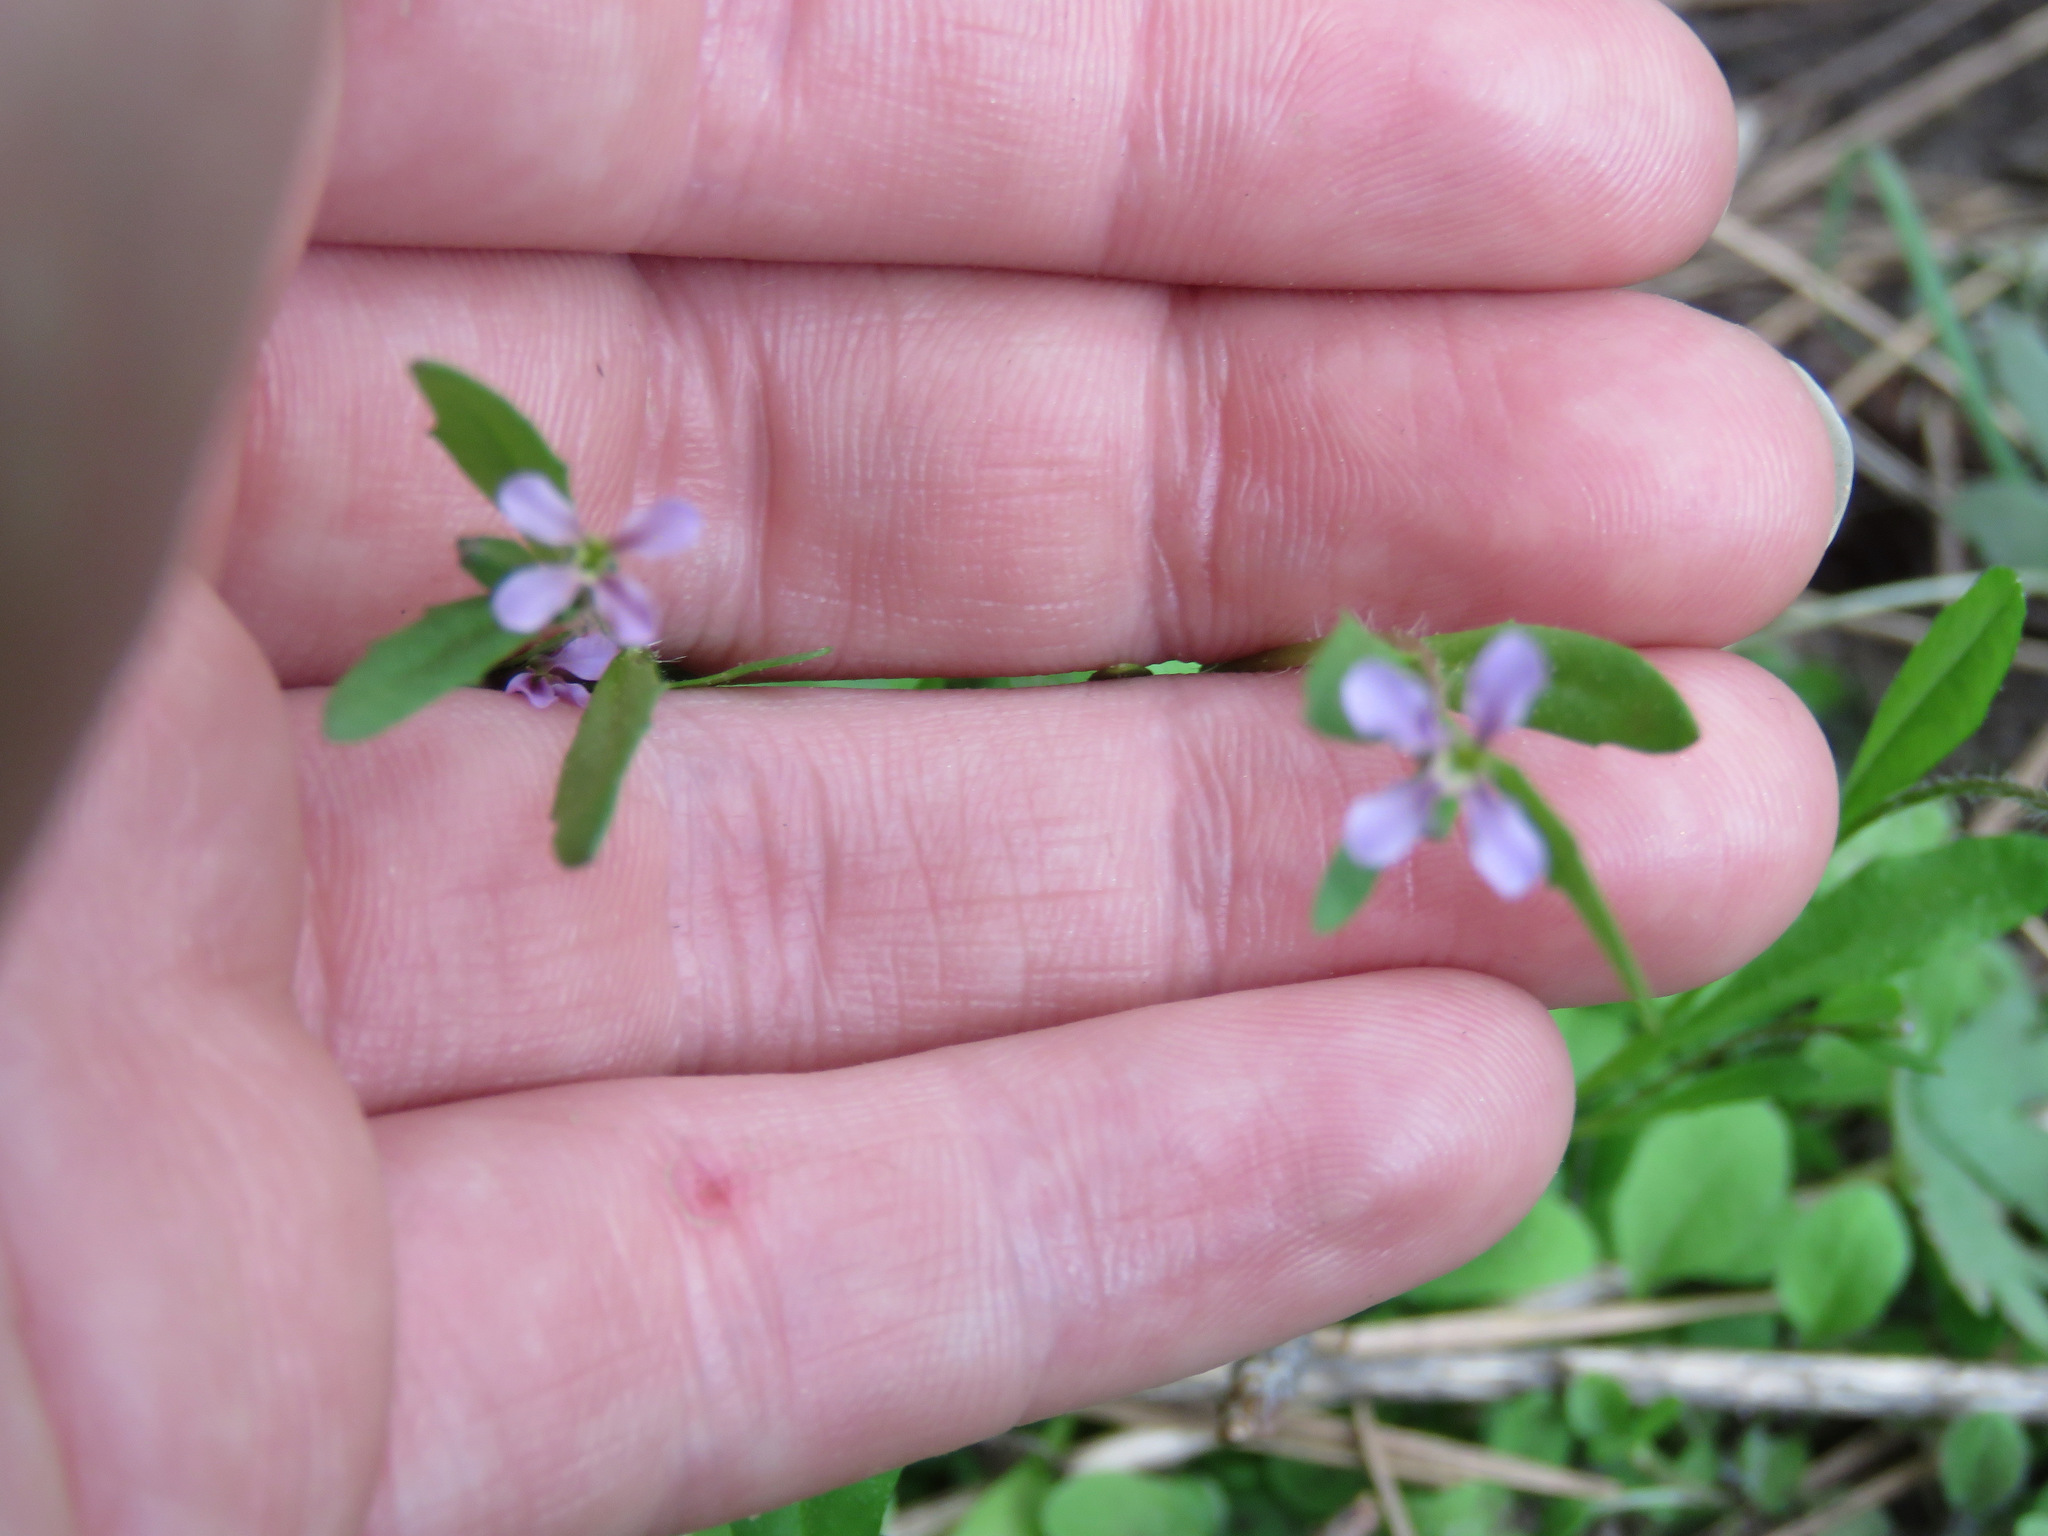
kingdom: Plantae
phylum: Tracheophyta
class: Magnoliopsida
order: Brassicales
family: Brassicaceae
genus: Chorispora
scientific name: Chorispora tenella
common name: Crossflower
